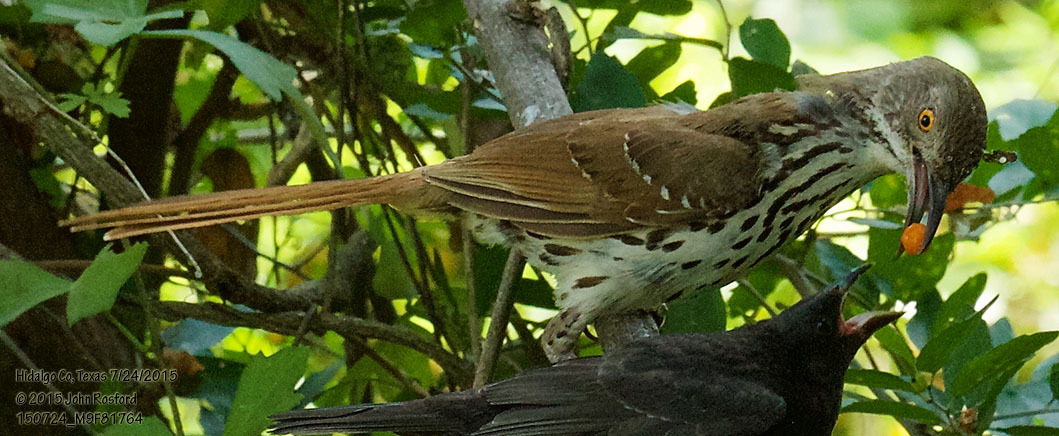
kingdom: Animalia
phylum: Chordata
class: Aves
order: Passeriformes
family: Mimidae
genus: Toxostoma
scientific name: Toxostoma longirostre
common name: Long-billed thrasher
